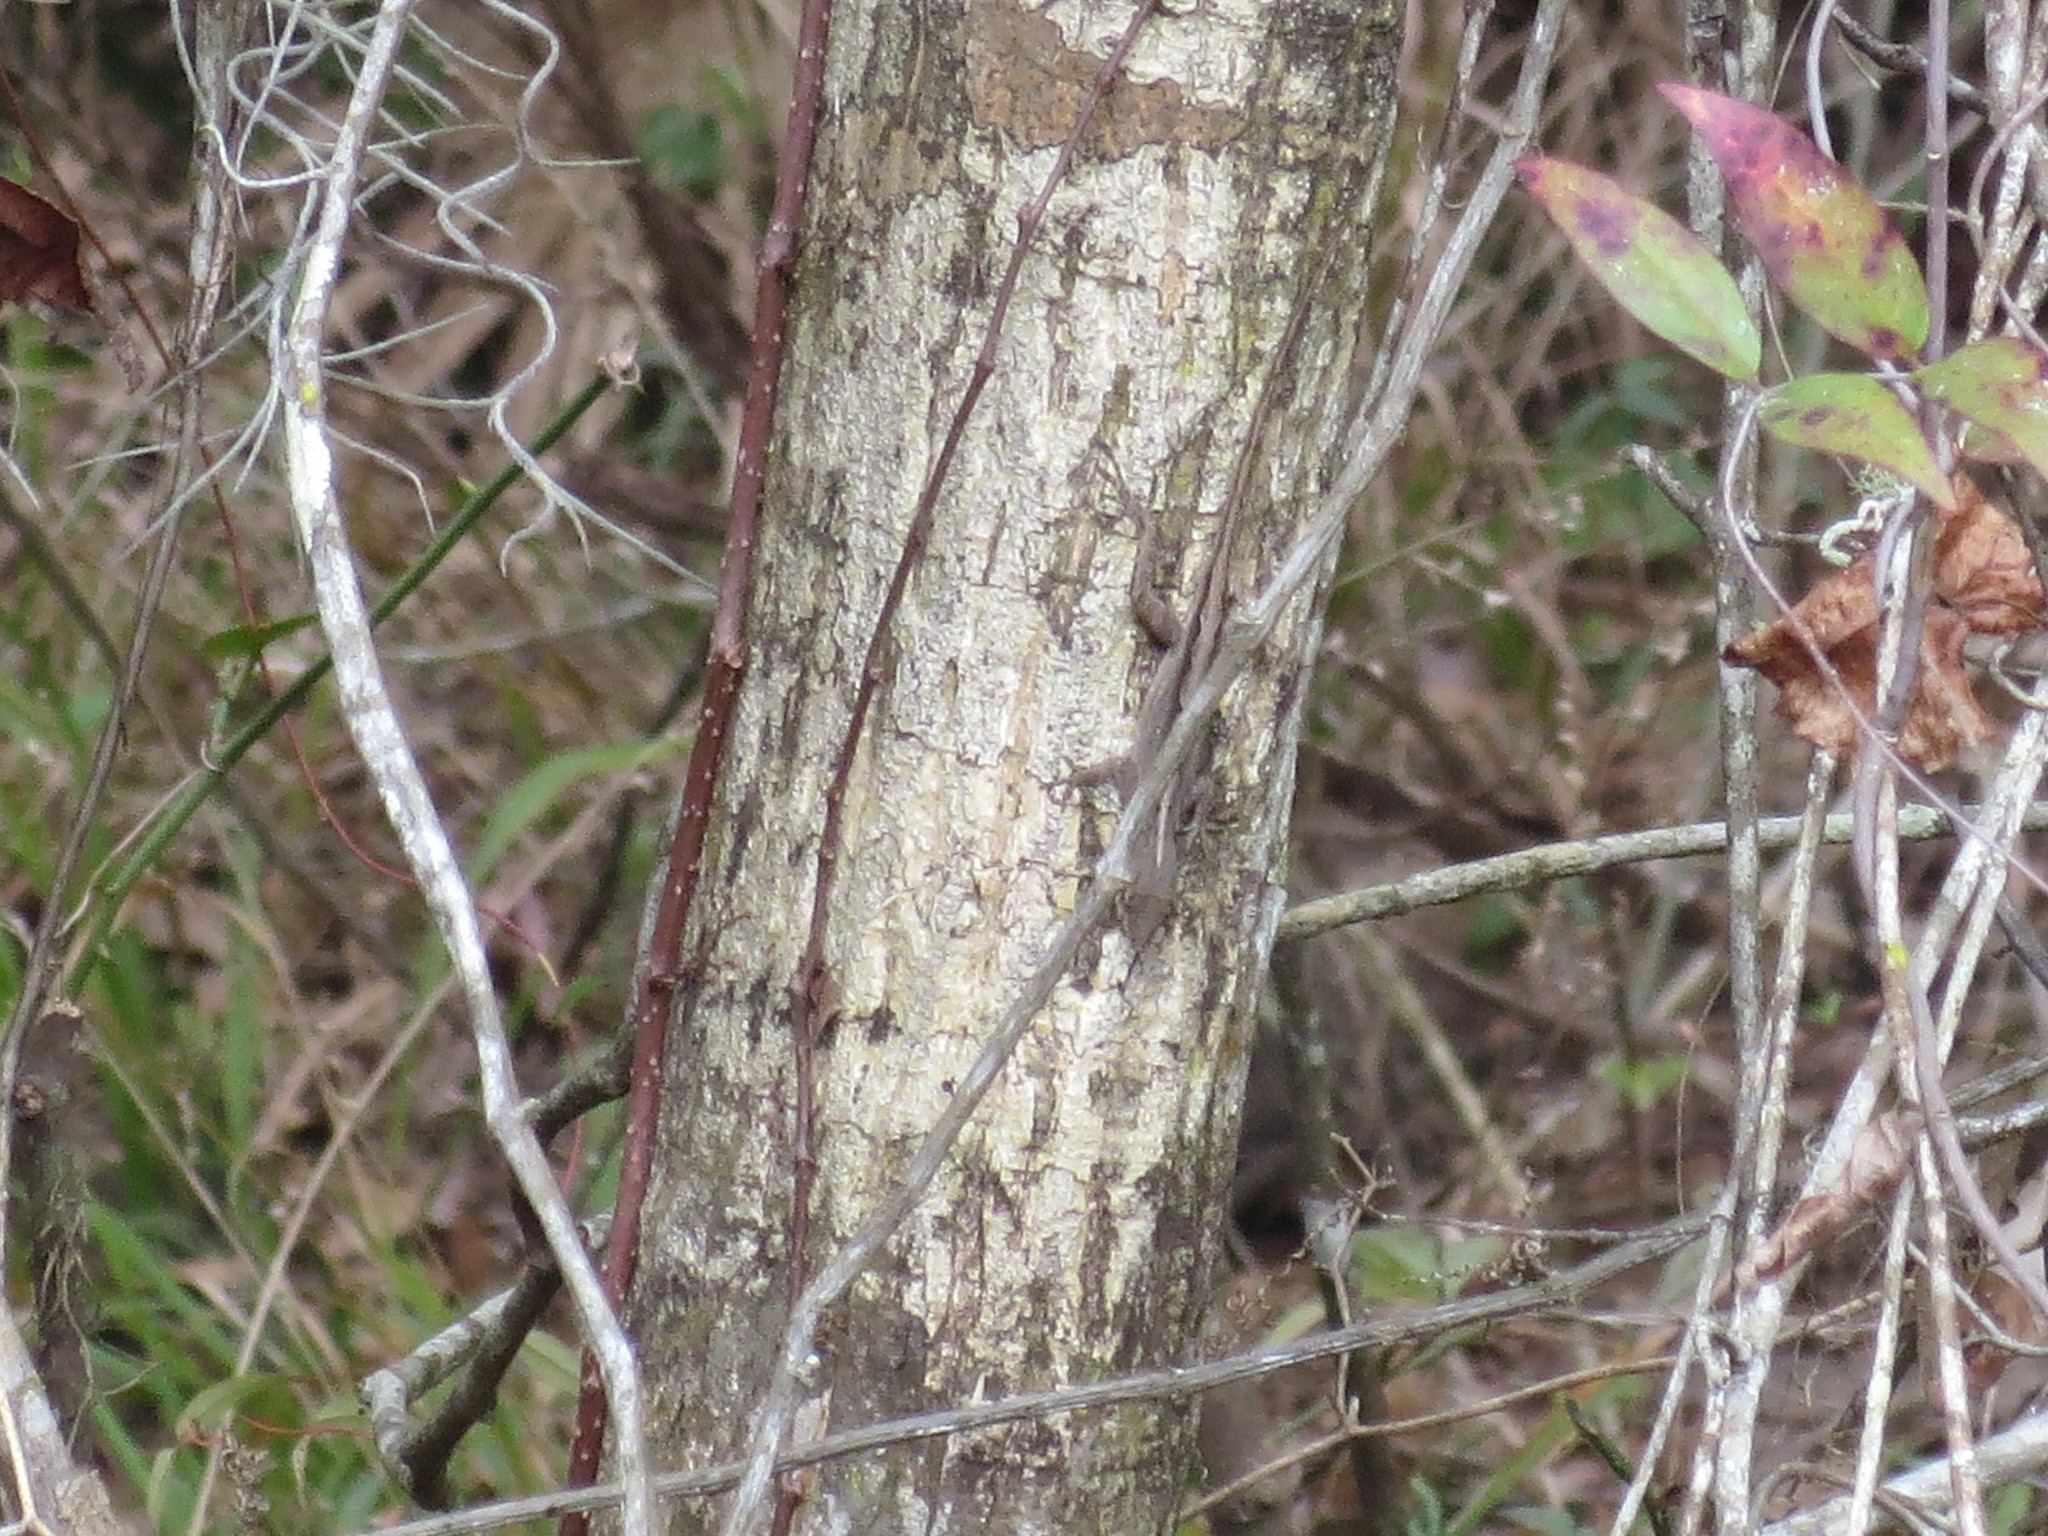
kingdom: Animalia
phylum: Chordata
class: Squamata
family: Dactyloidae
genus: Anolis
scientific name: Anolis sagrei
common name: Brown anole
